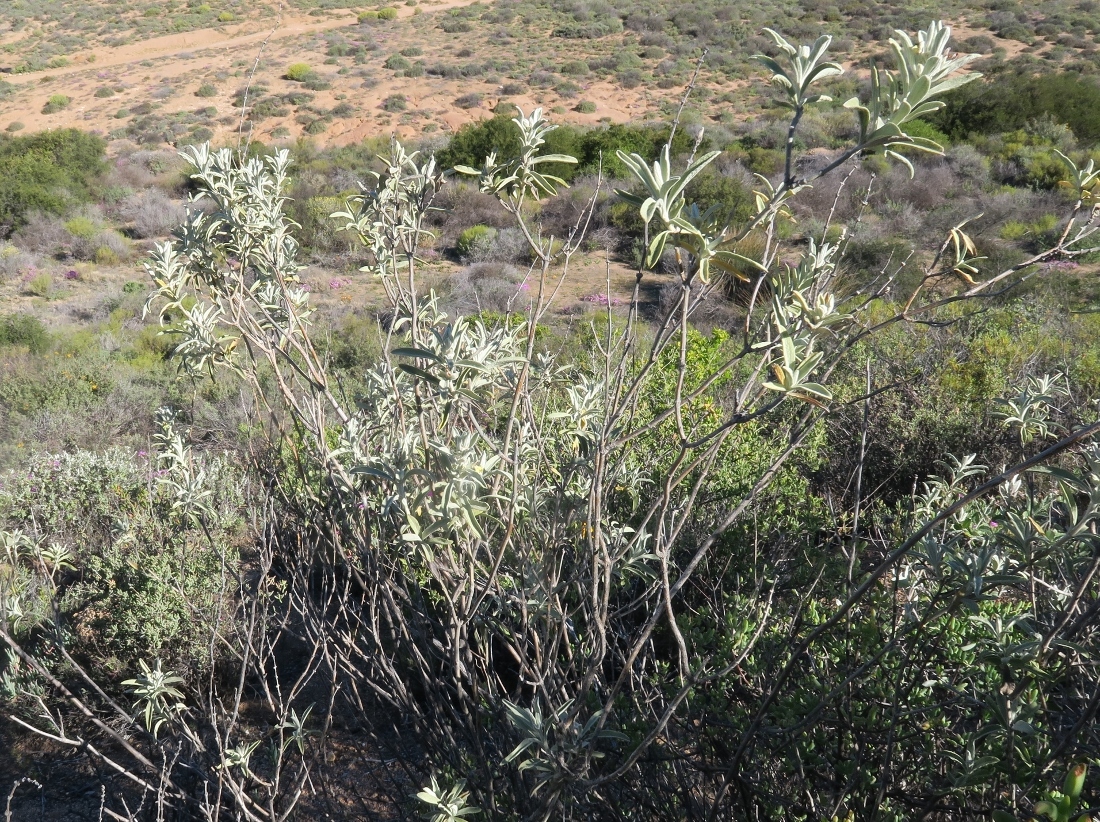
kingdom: Plantae
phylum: Tracheophyta
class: Magnoliopsida
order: Lamiales
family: Lamiaceae
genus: Stachys
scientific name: Stachys rugosa
